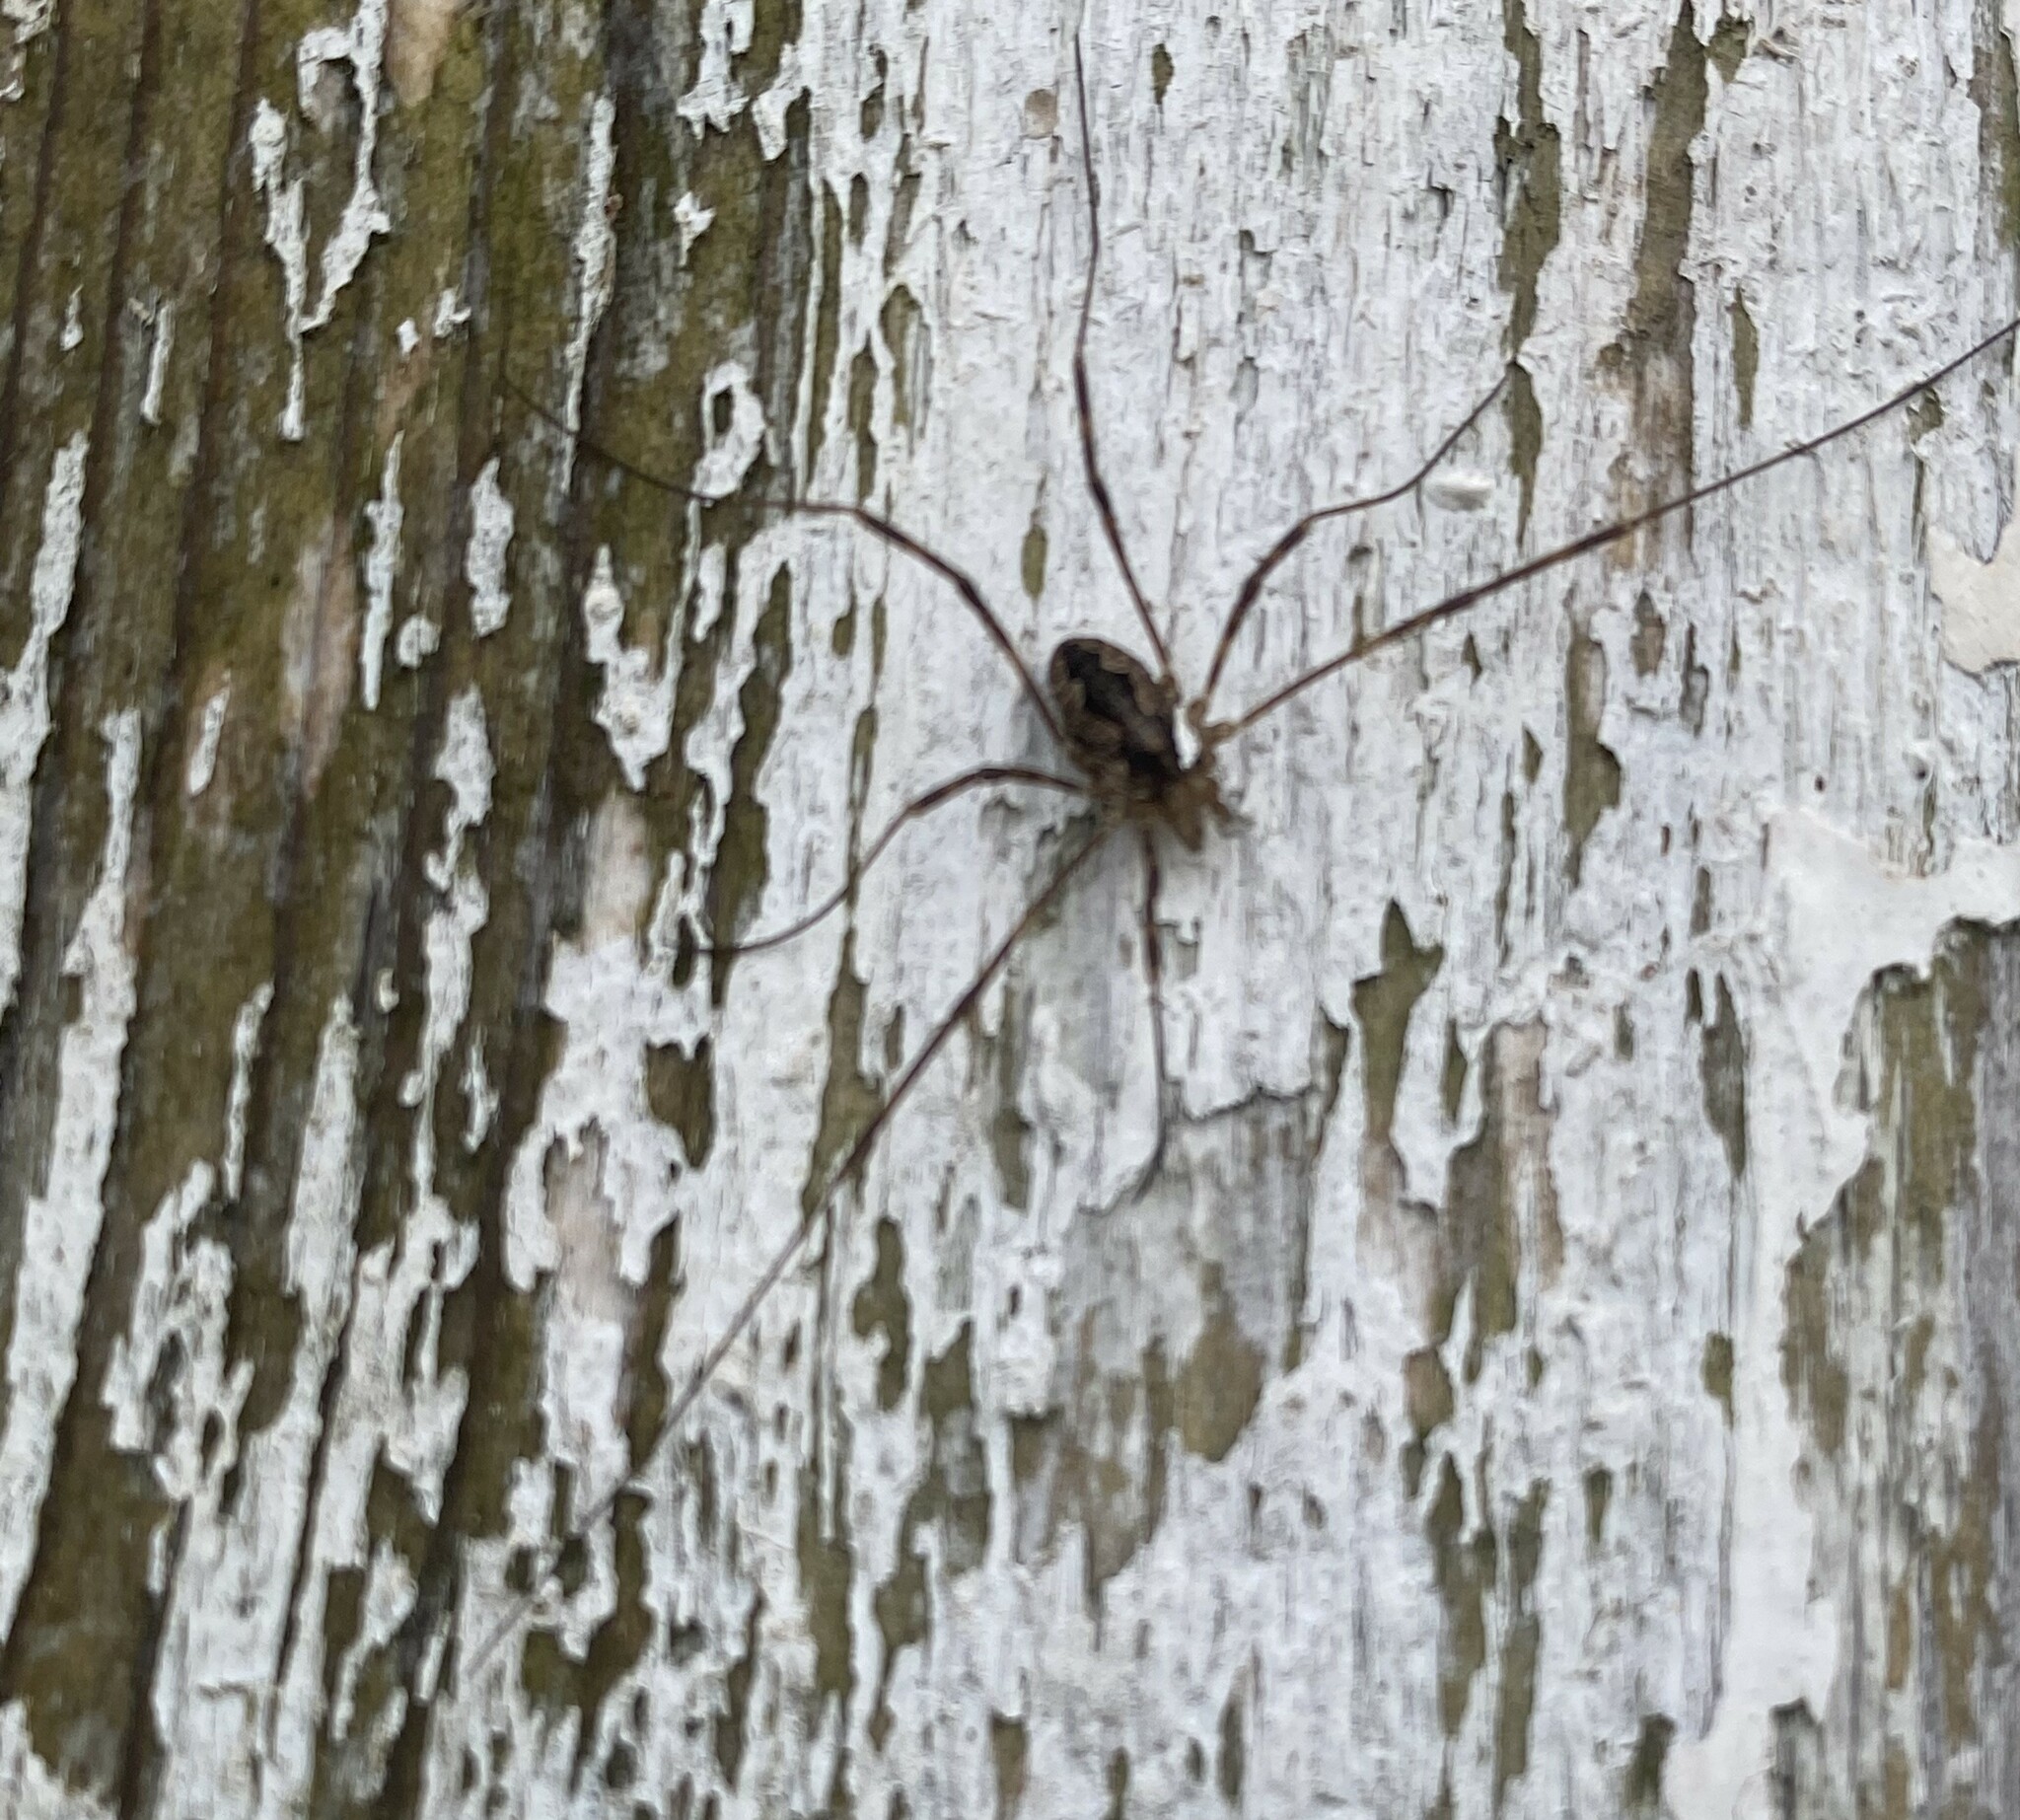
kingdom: Animalia
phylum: Arthropoda
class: Arachnida
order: Opiliones
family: Phalangiidae
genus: Odiellus
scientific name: Odiellus pictus
